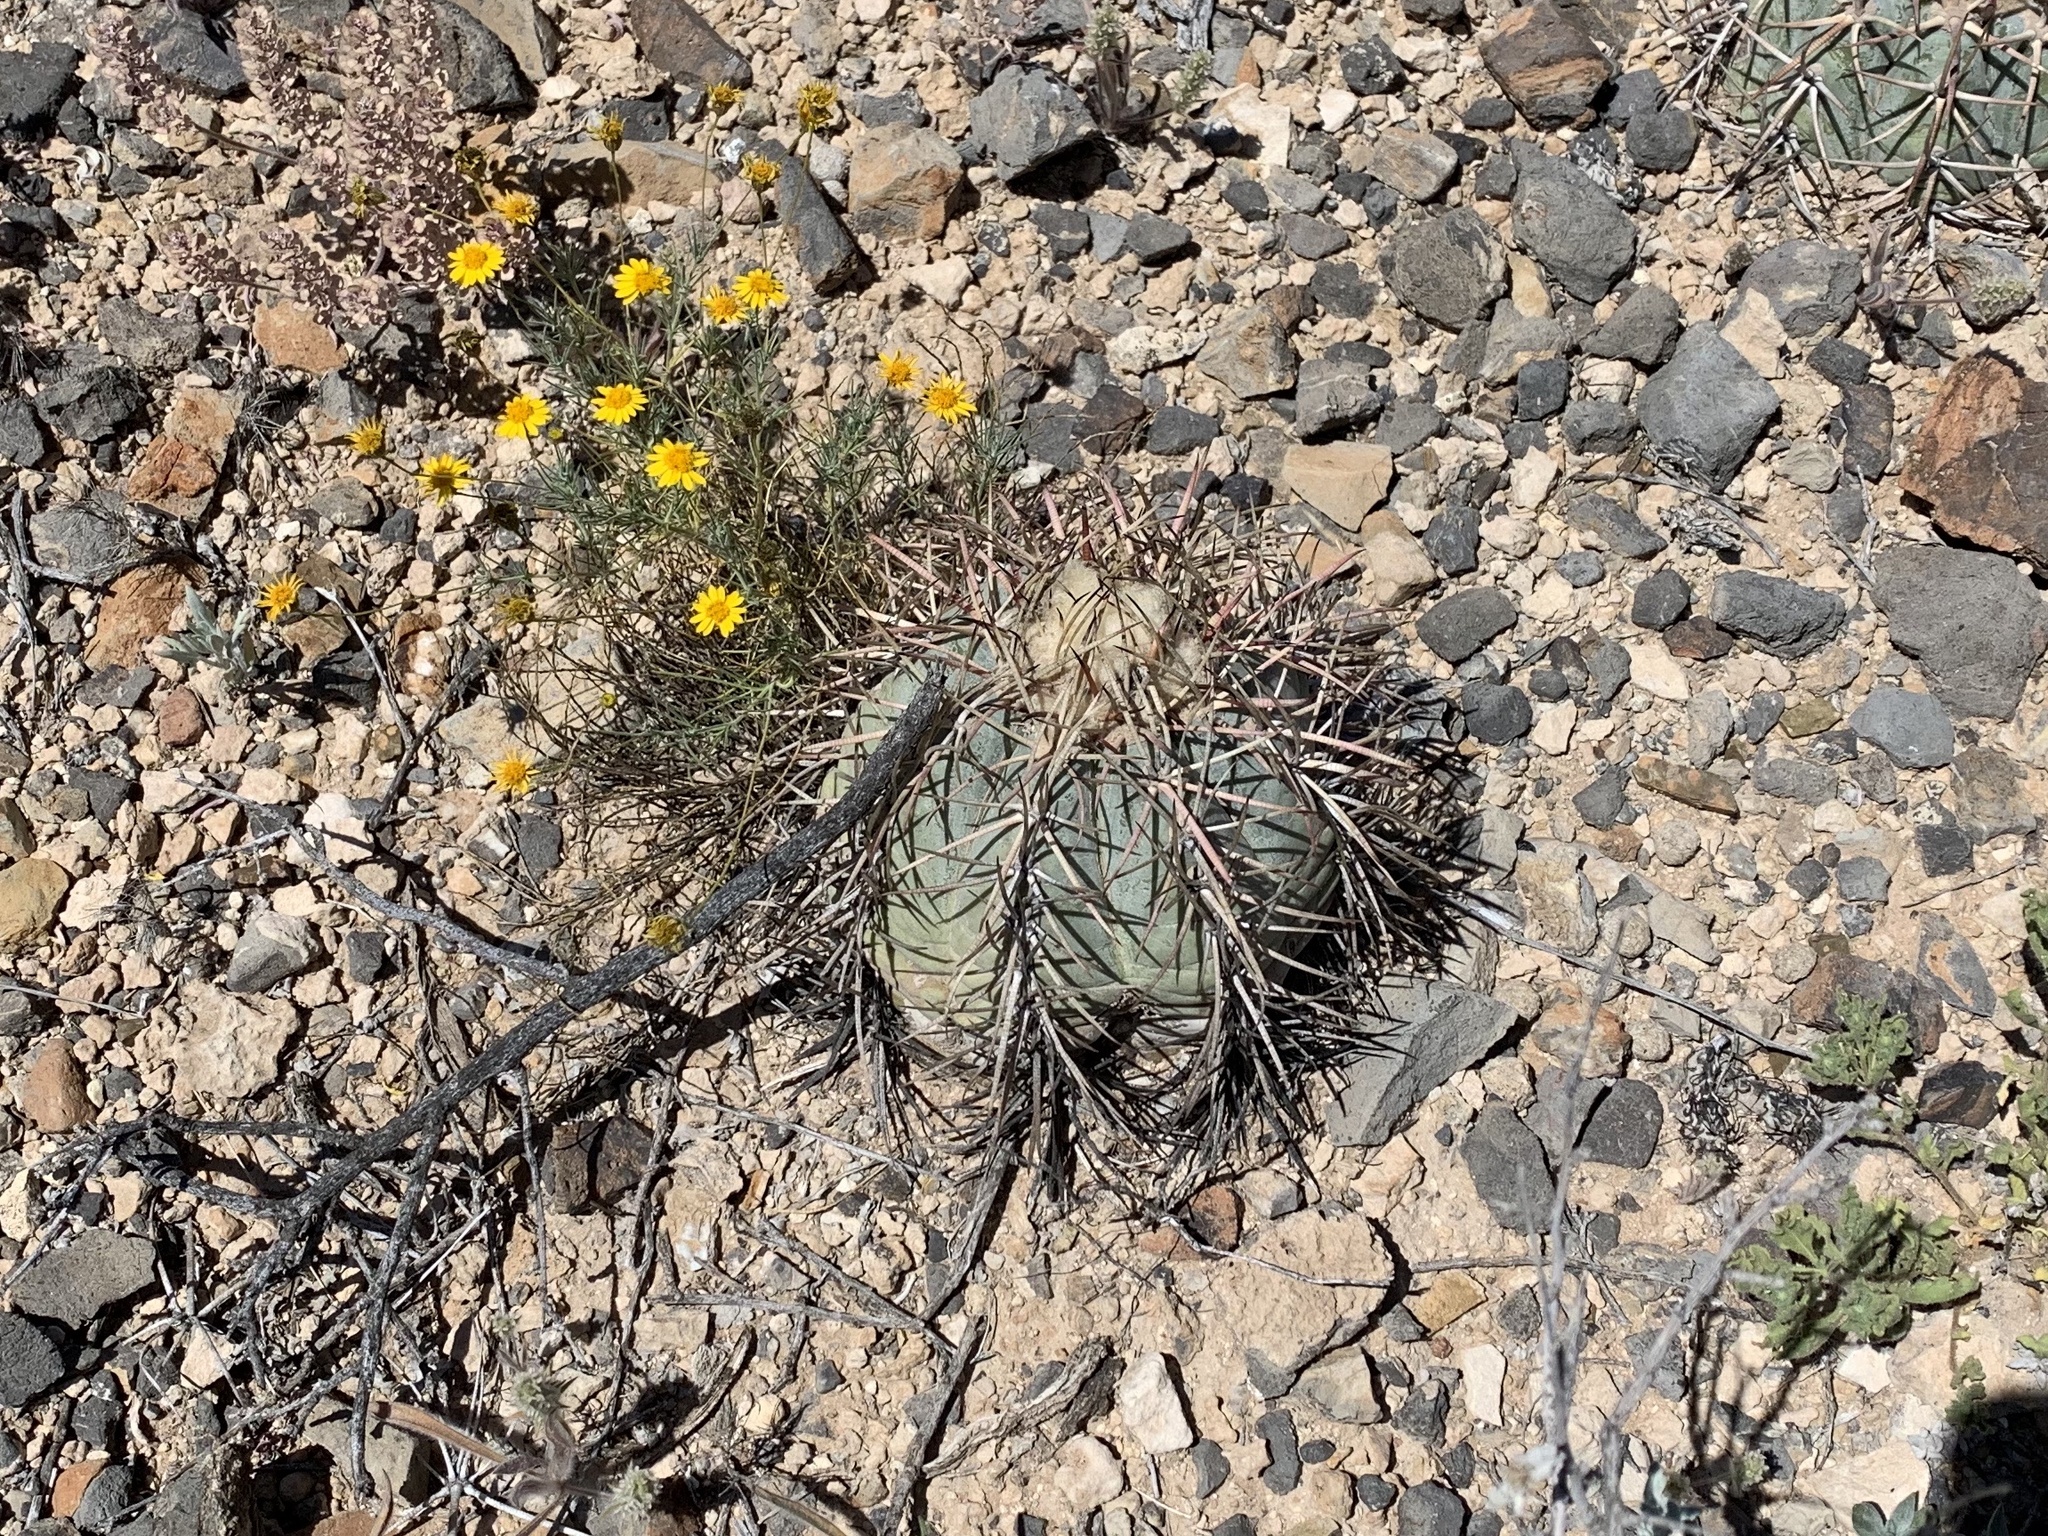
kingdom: Plantae
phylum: Tracheophyta
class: Magnoliopsida
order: Caryophyllales
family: Cactaceae
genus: Echinocactus
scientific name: Echinocactus horizonthalonius
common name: Devilshead
